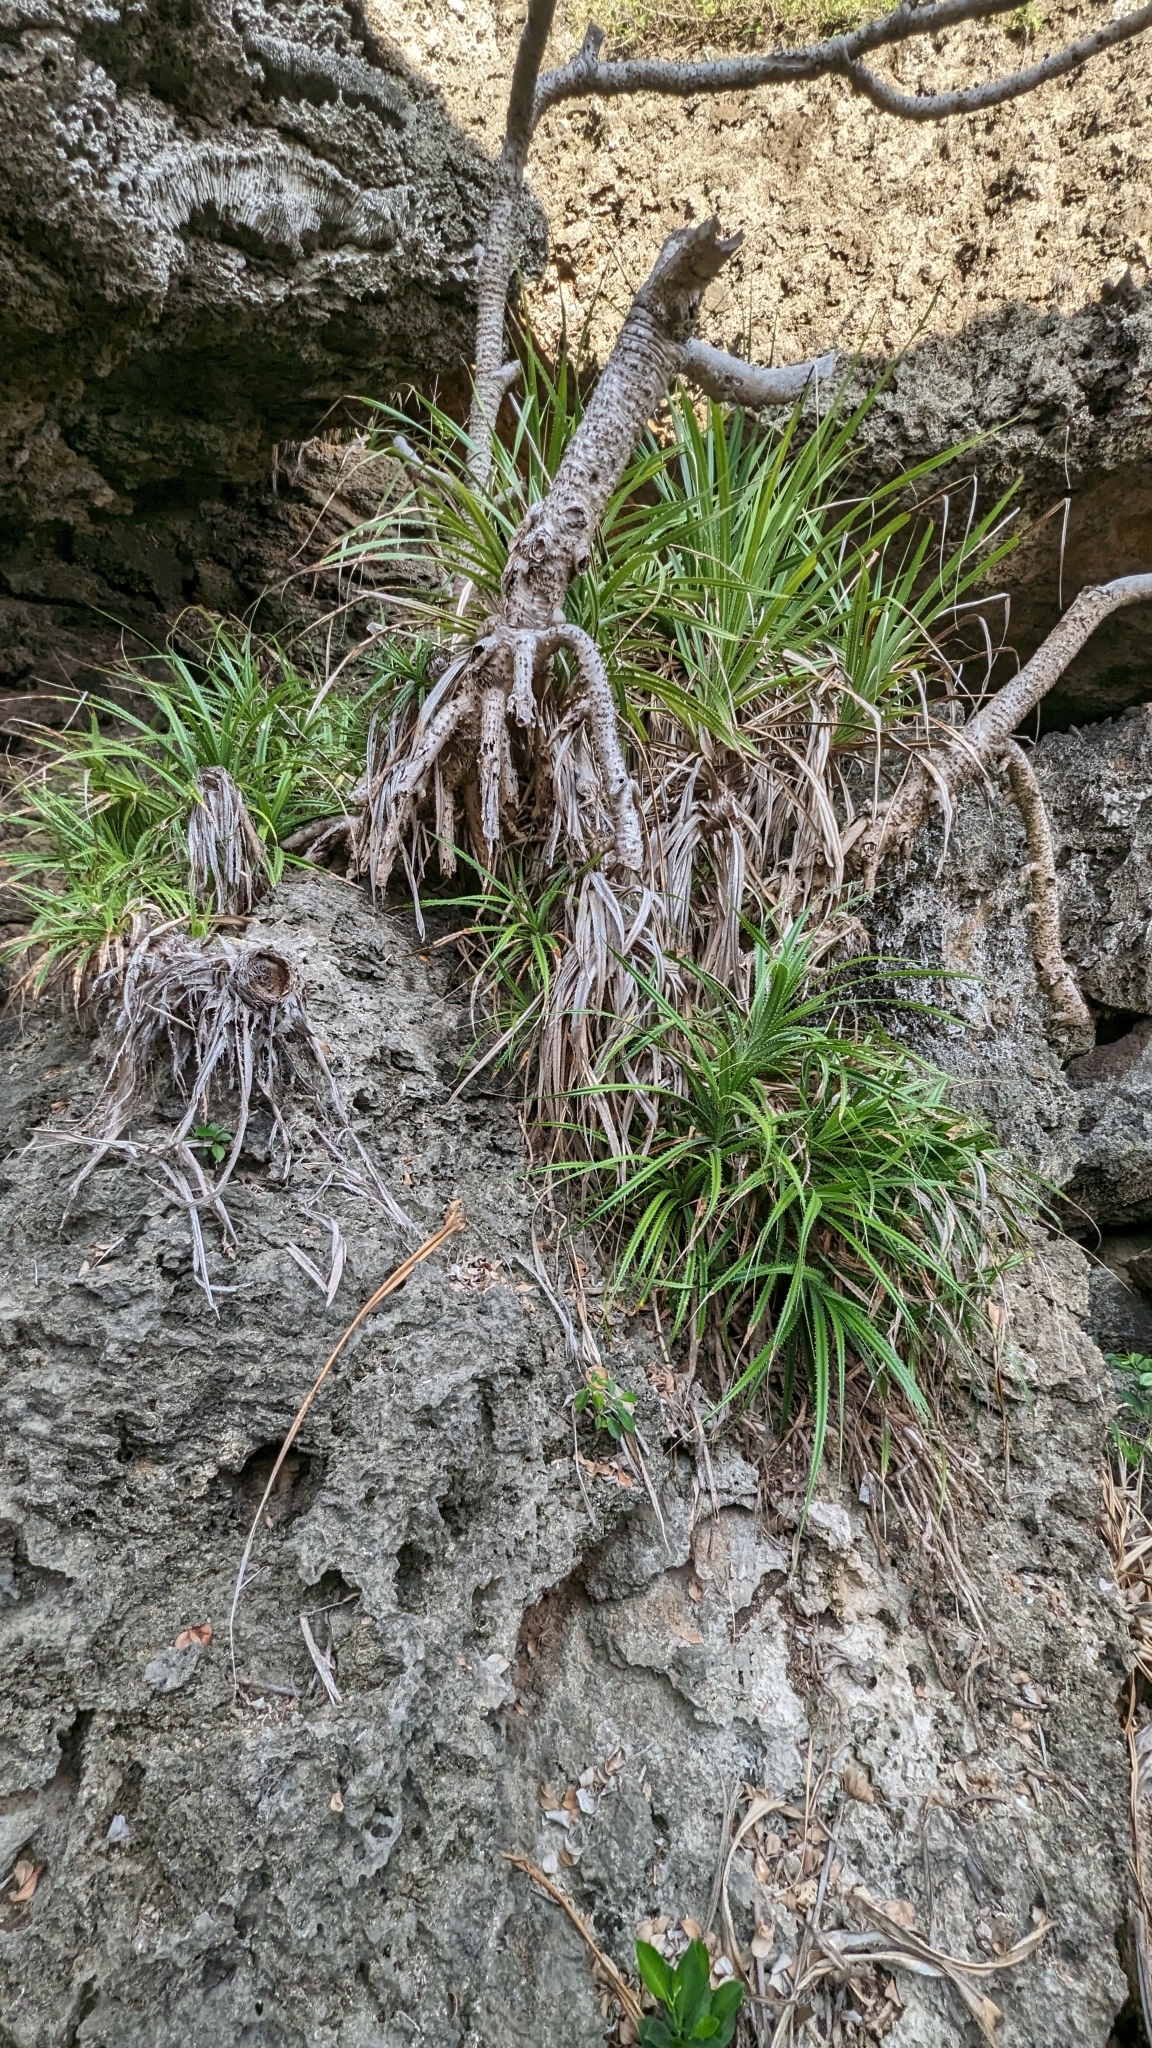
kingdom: Plantae
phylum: Tracheophyta
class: Liliopsida
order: Pandanales
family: Pandanaceae
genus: Pandanus
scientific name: Pandanus odorifer
